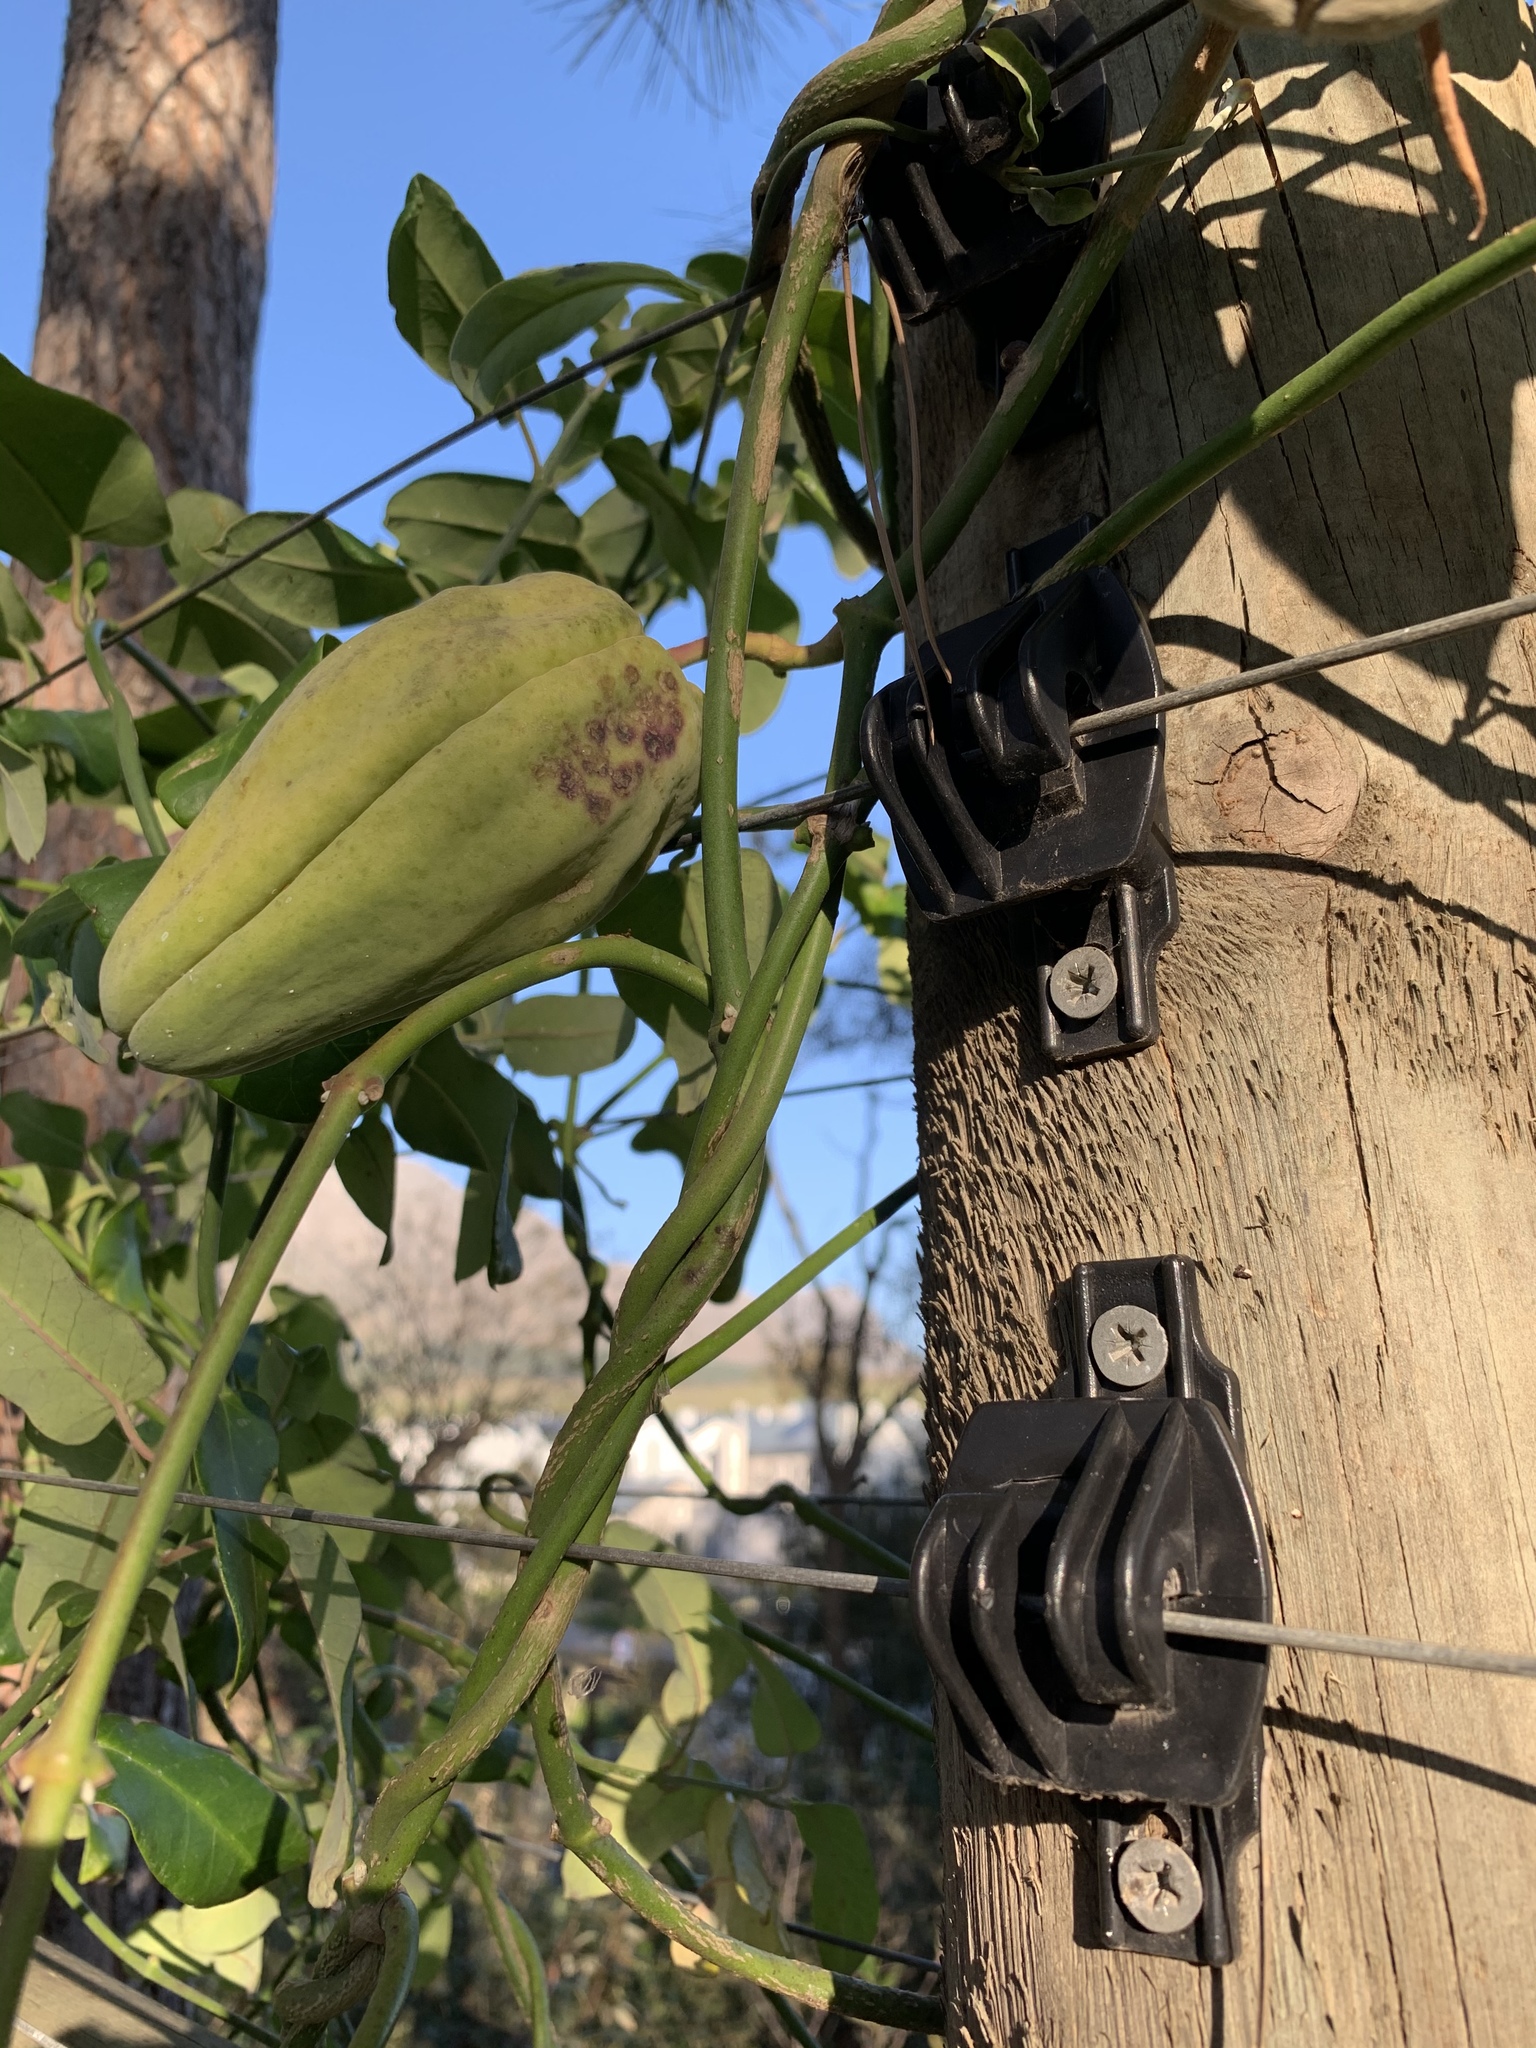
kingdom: Plantae
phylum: Tracheophyta
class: Magnoliopsida
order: Gentianales
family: Apocynaceae
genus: Araujia
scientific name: Araujia sericifera
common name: White bladderflower
